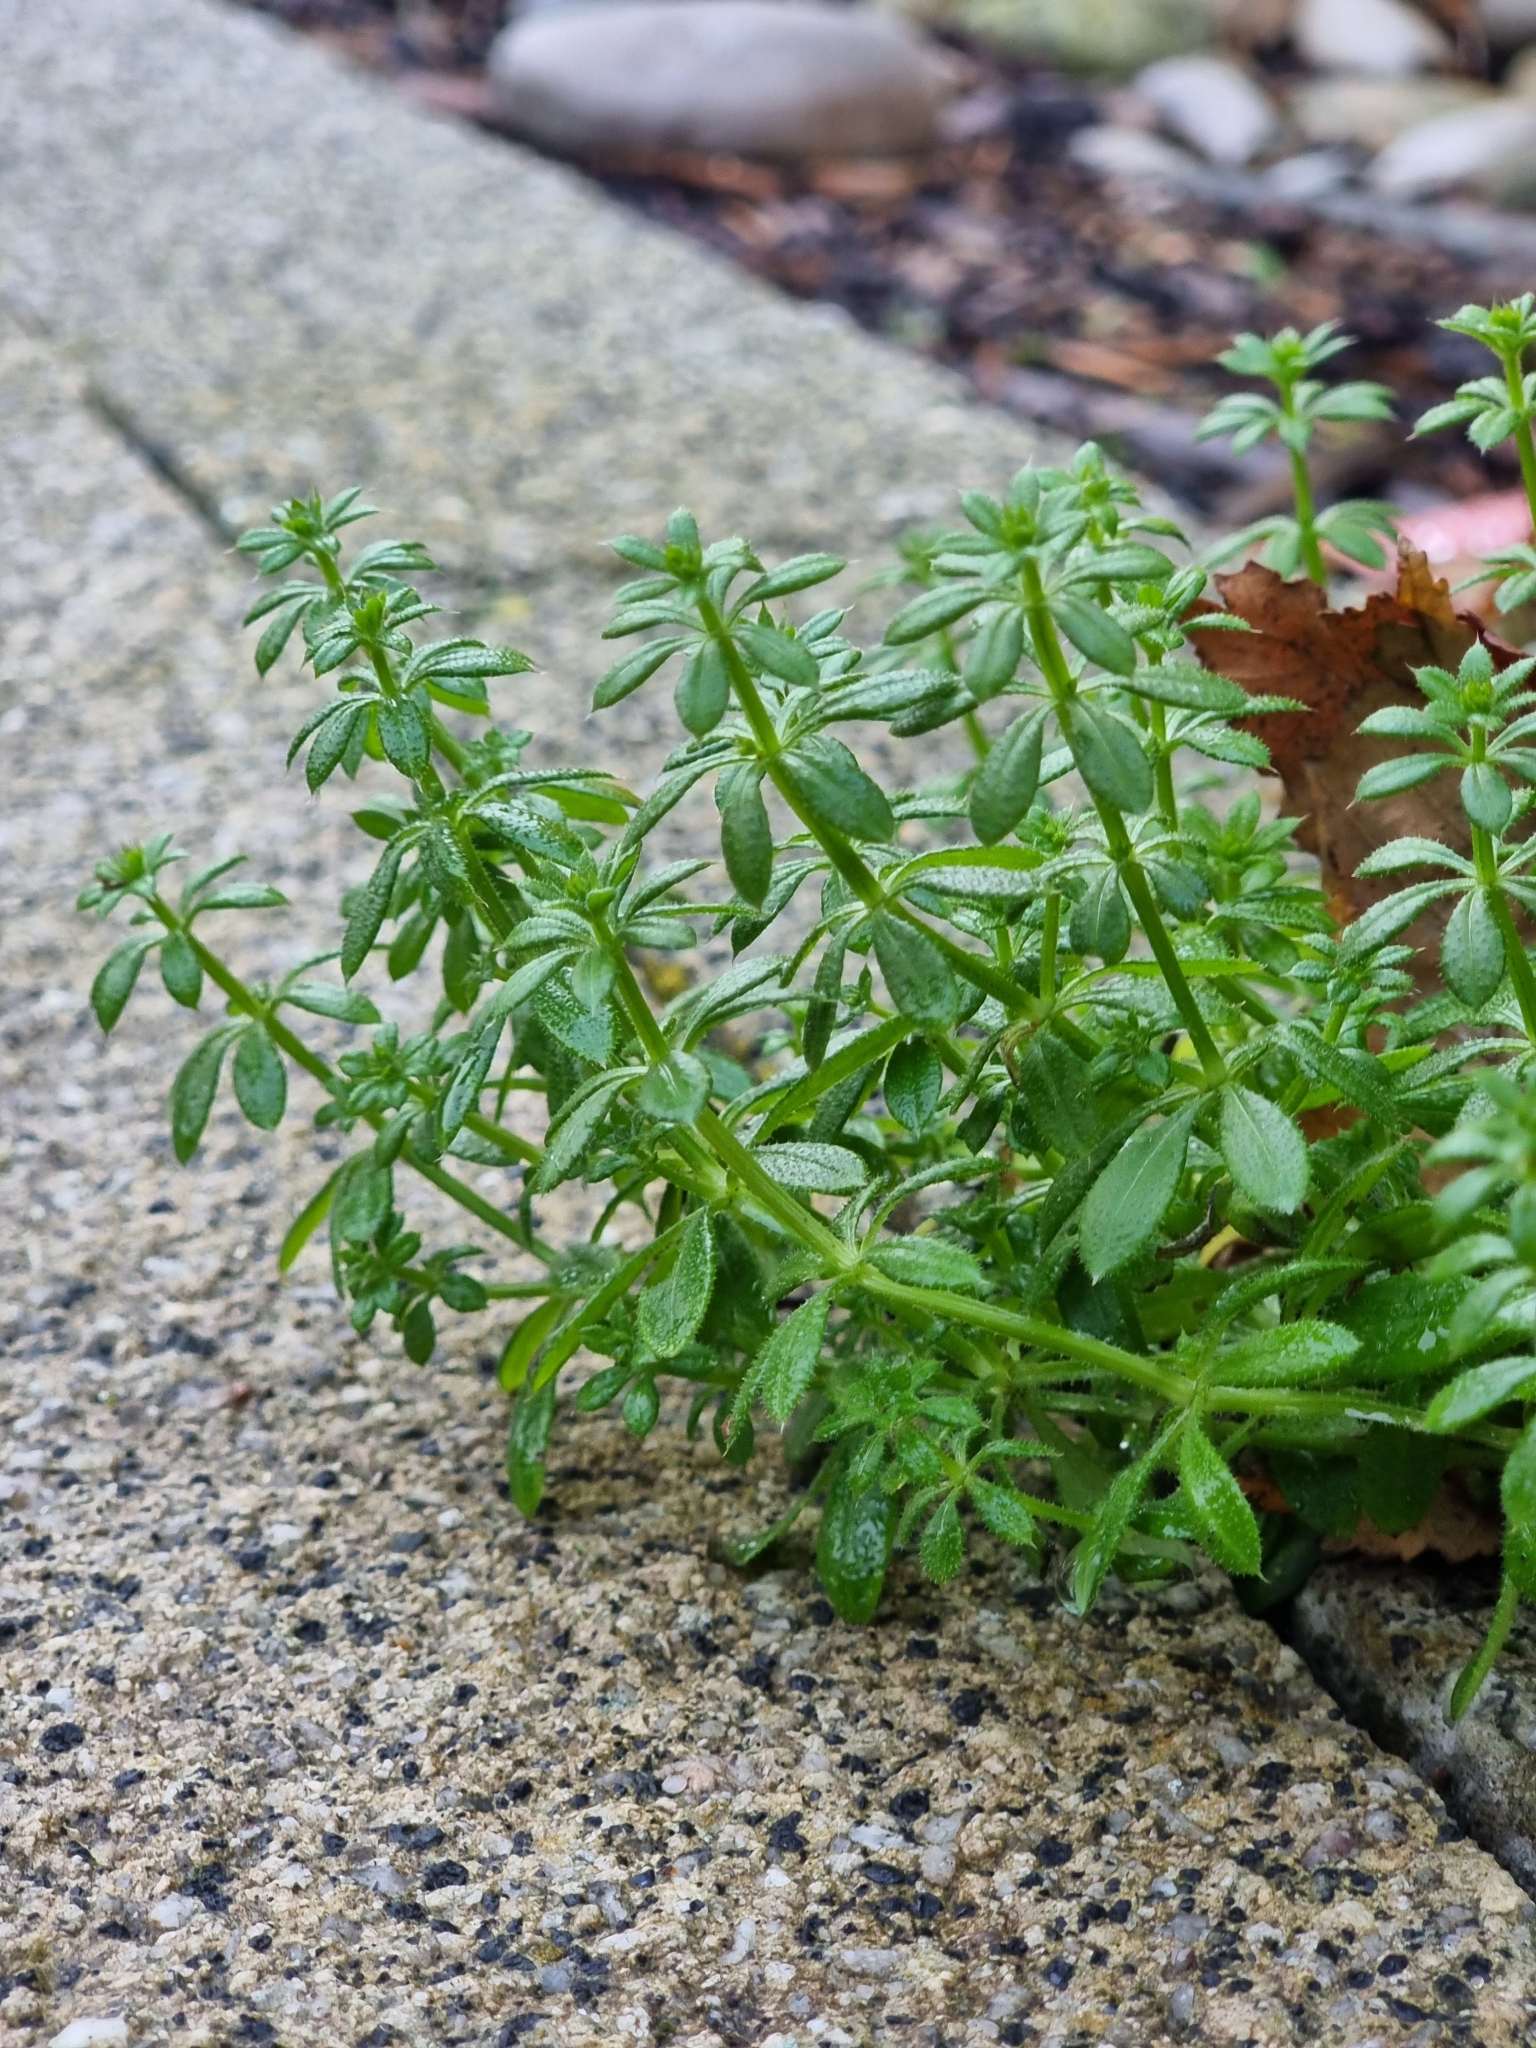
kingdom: Plantae
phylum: Tracheophyta
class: Magnoliopsida
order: Gentianales
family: Rubiaceae
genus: Galium
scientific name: Galium aparine
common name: Cleavers
